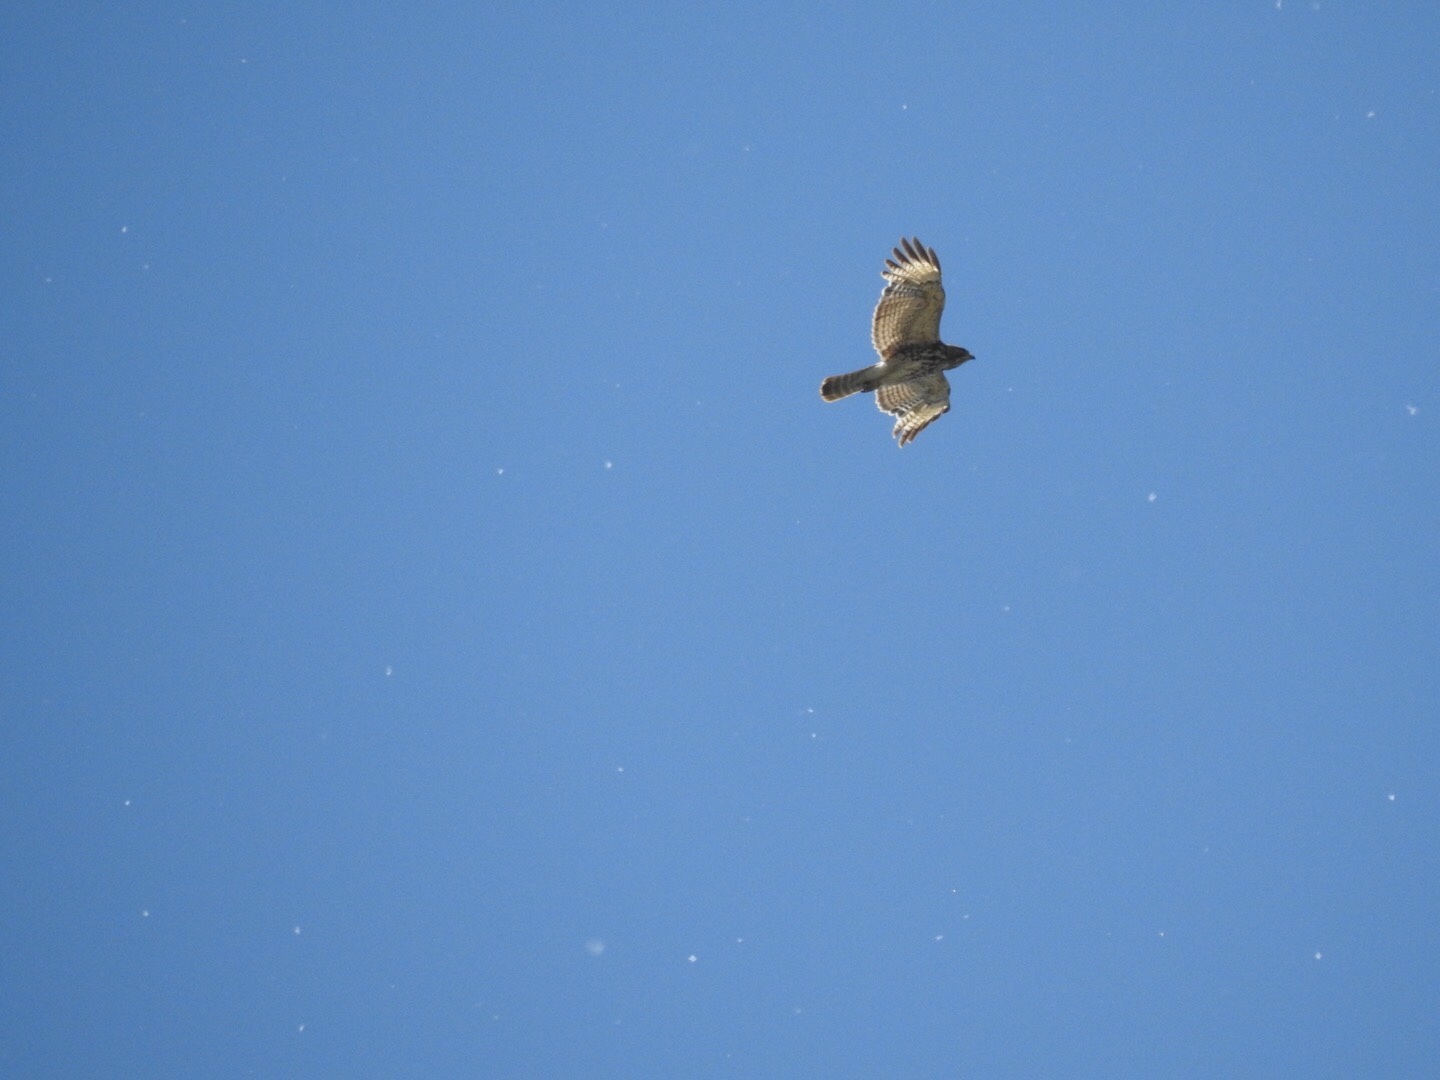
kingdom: Animalia
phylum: Chordata
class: Aves
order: Accipitriformes
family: Accipitridae
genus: Buteo
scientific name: Buteo lineatus
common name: Red-shouldered hawk
